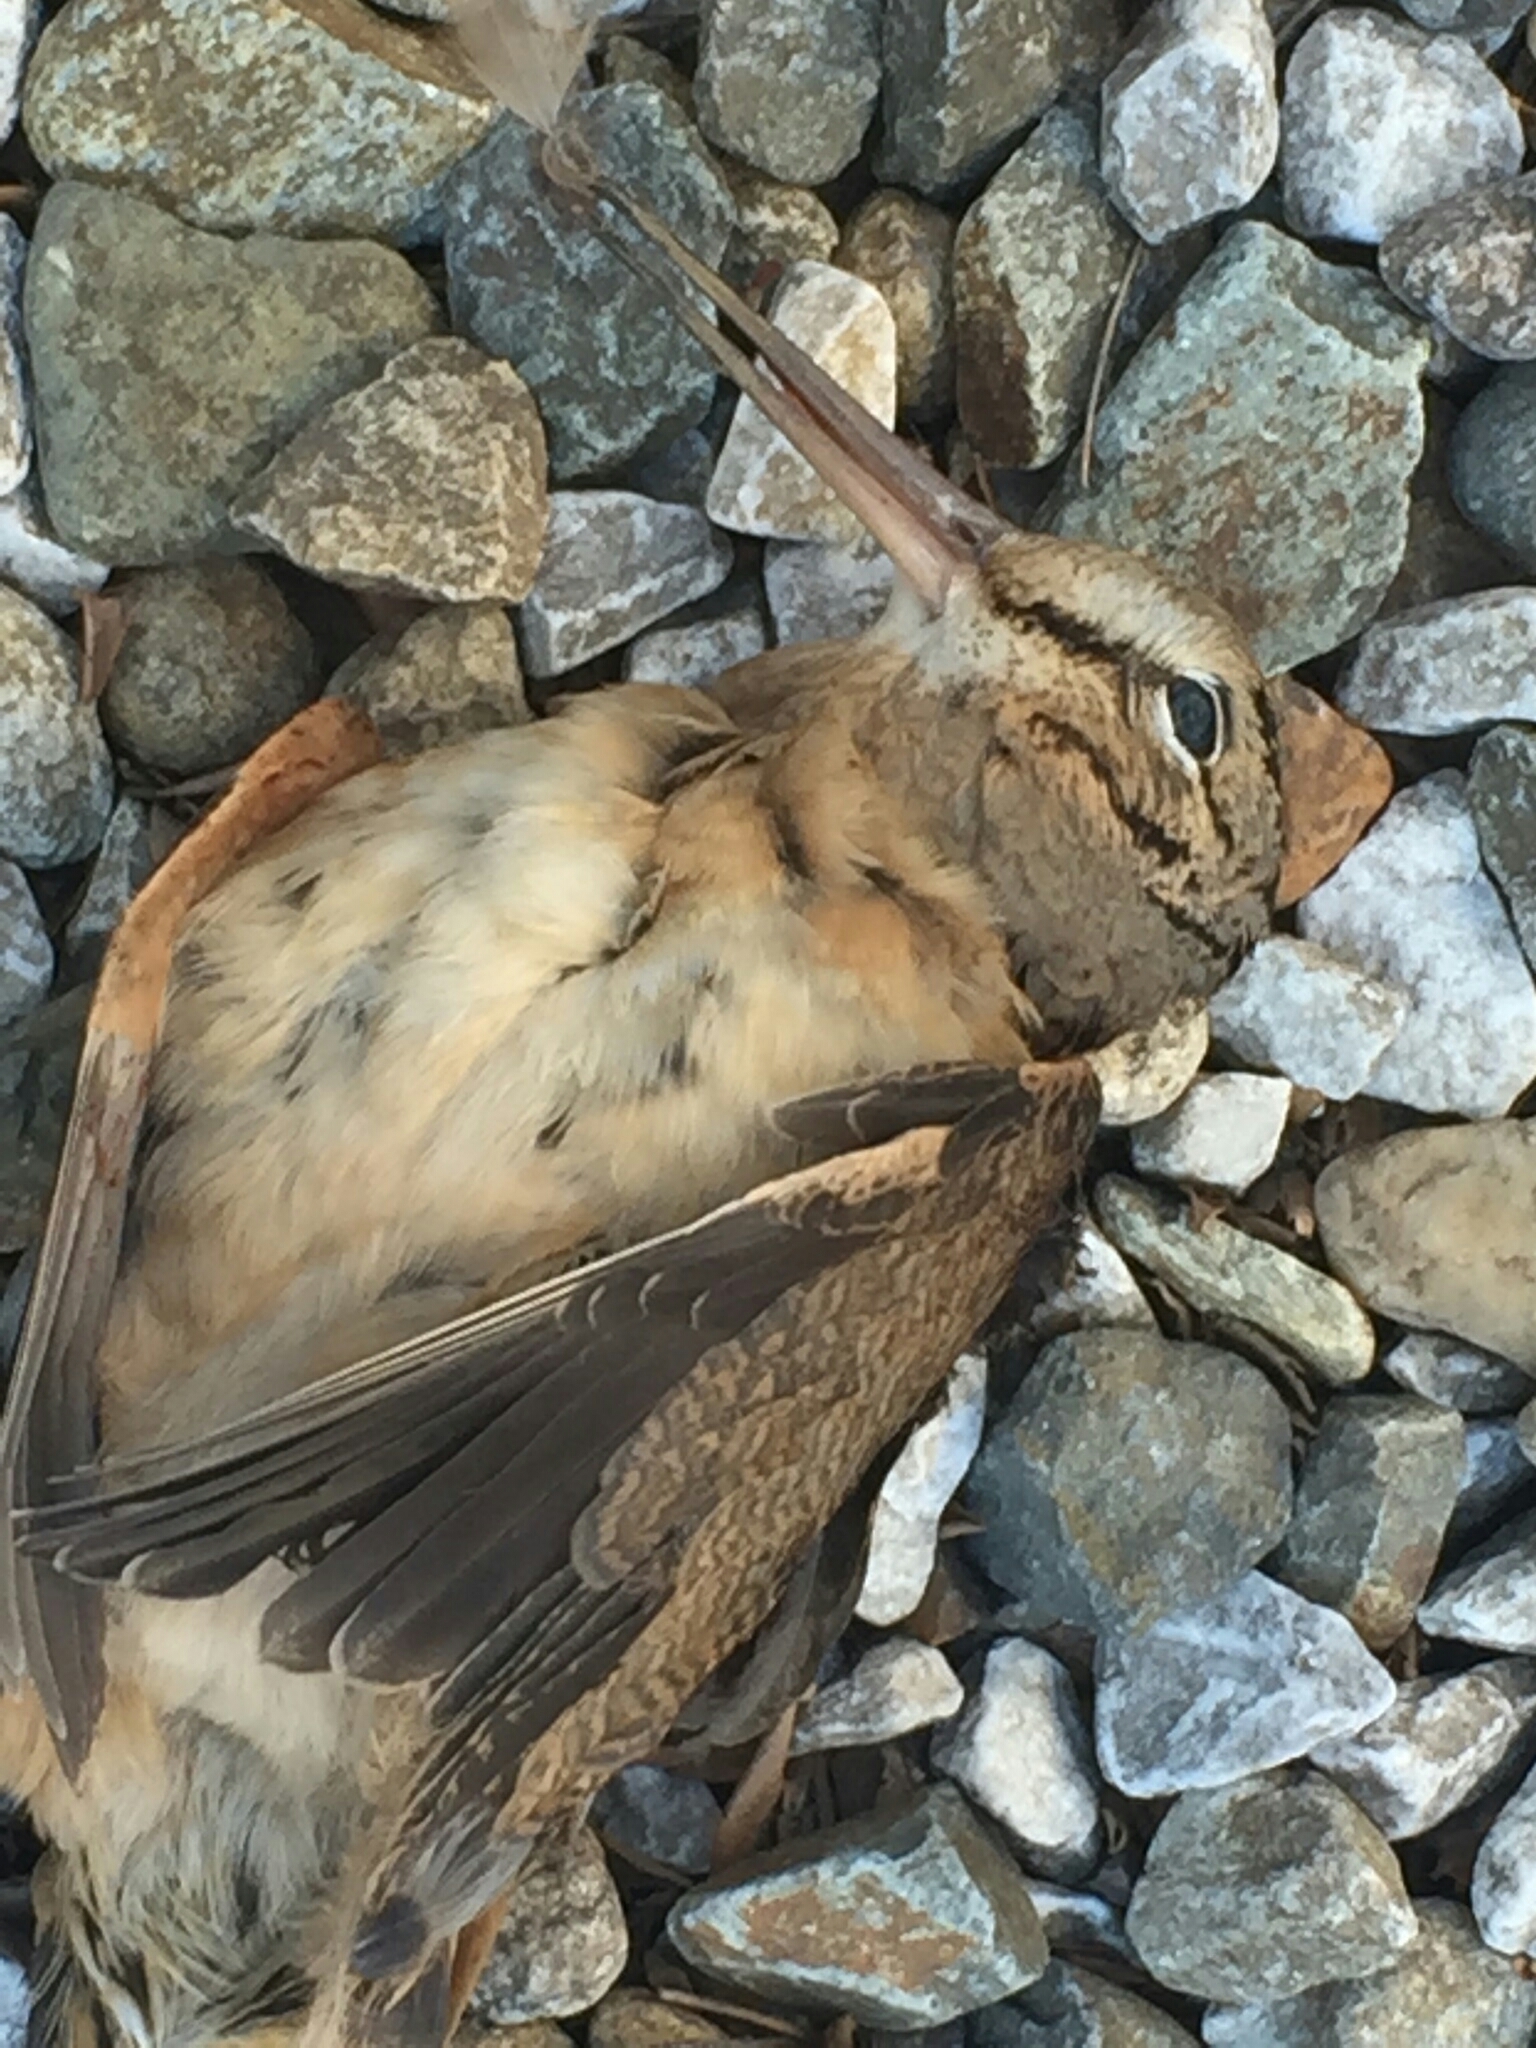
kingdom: Animalia
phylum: Chordata
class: Aves
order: Charadriiformes
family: Scolopacidae
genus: Scolopax
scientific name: Scolopax minor
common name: American woodcock
